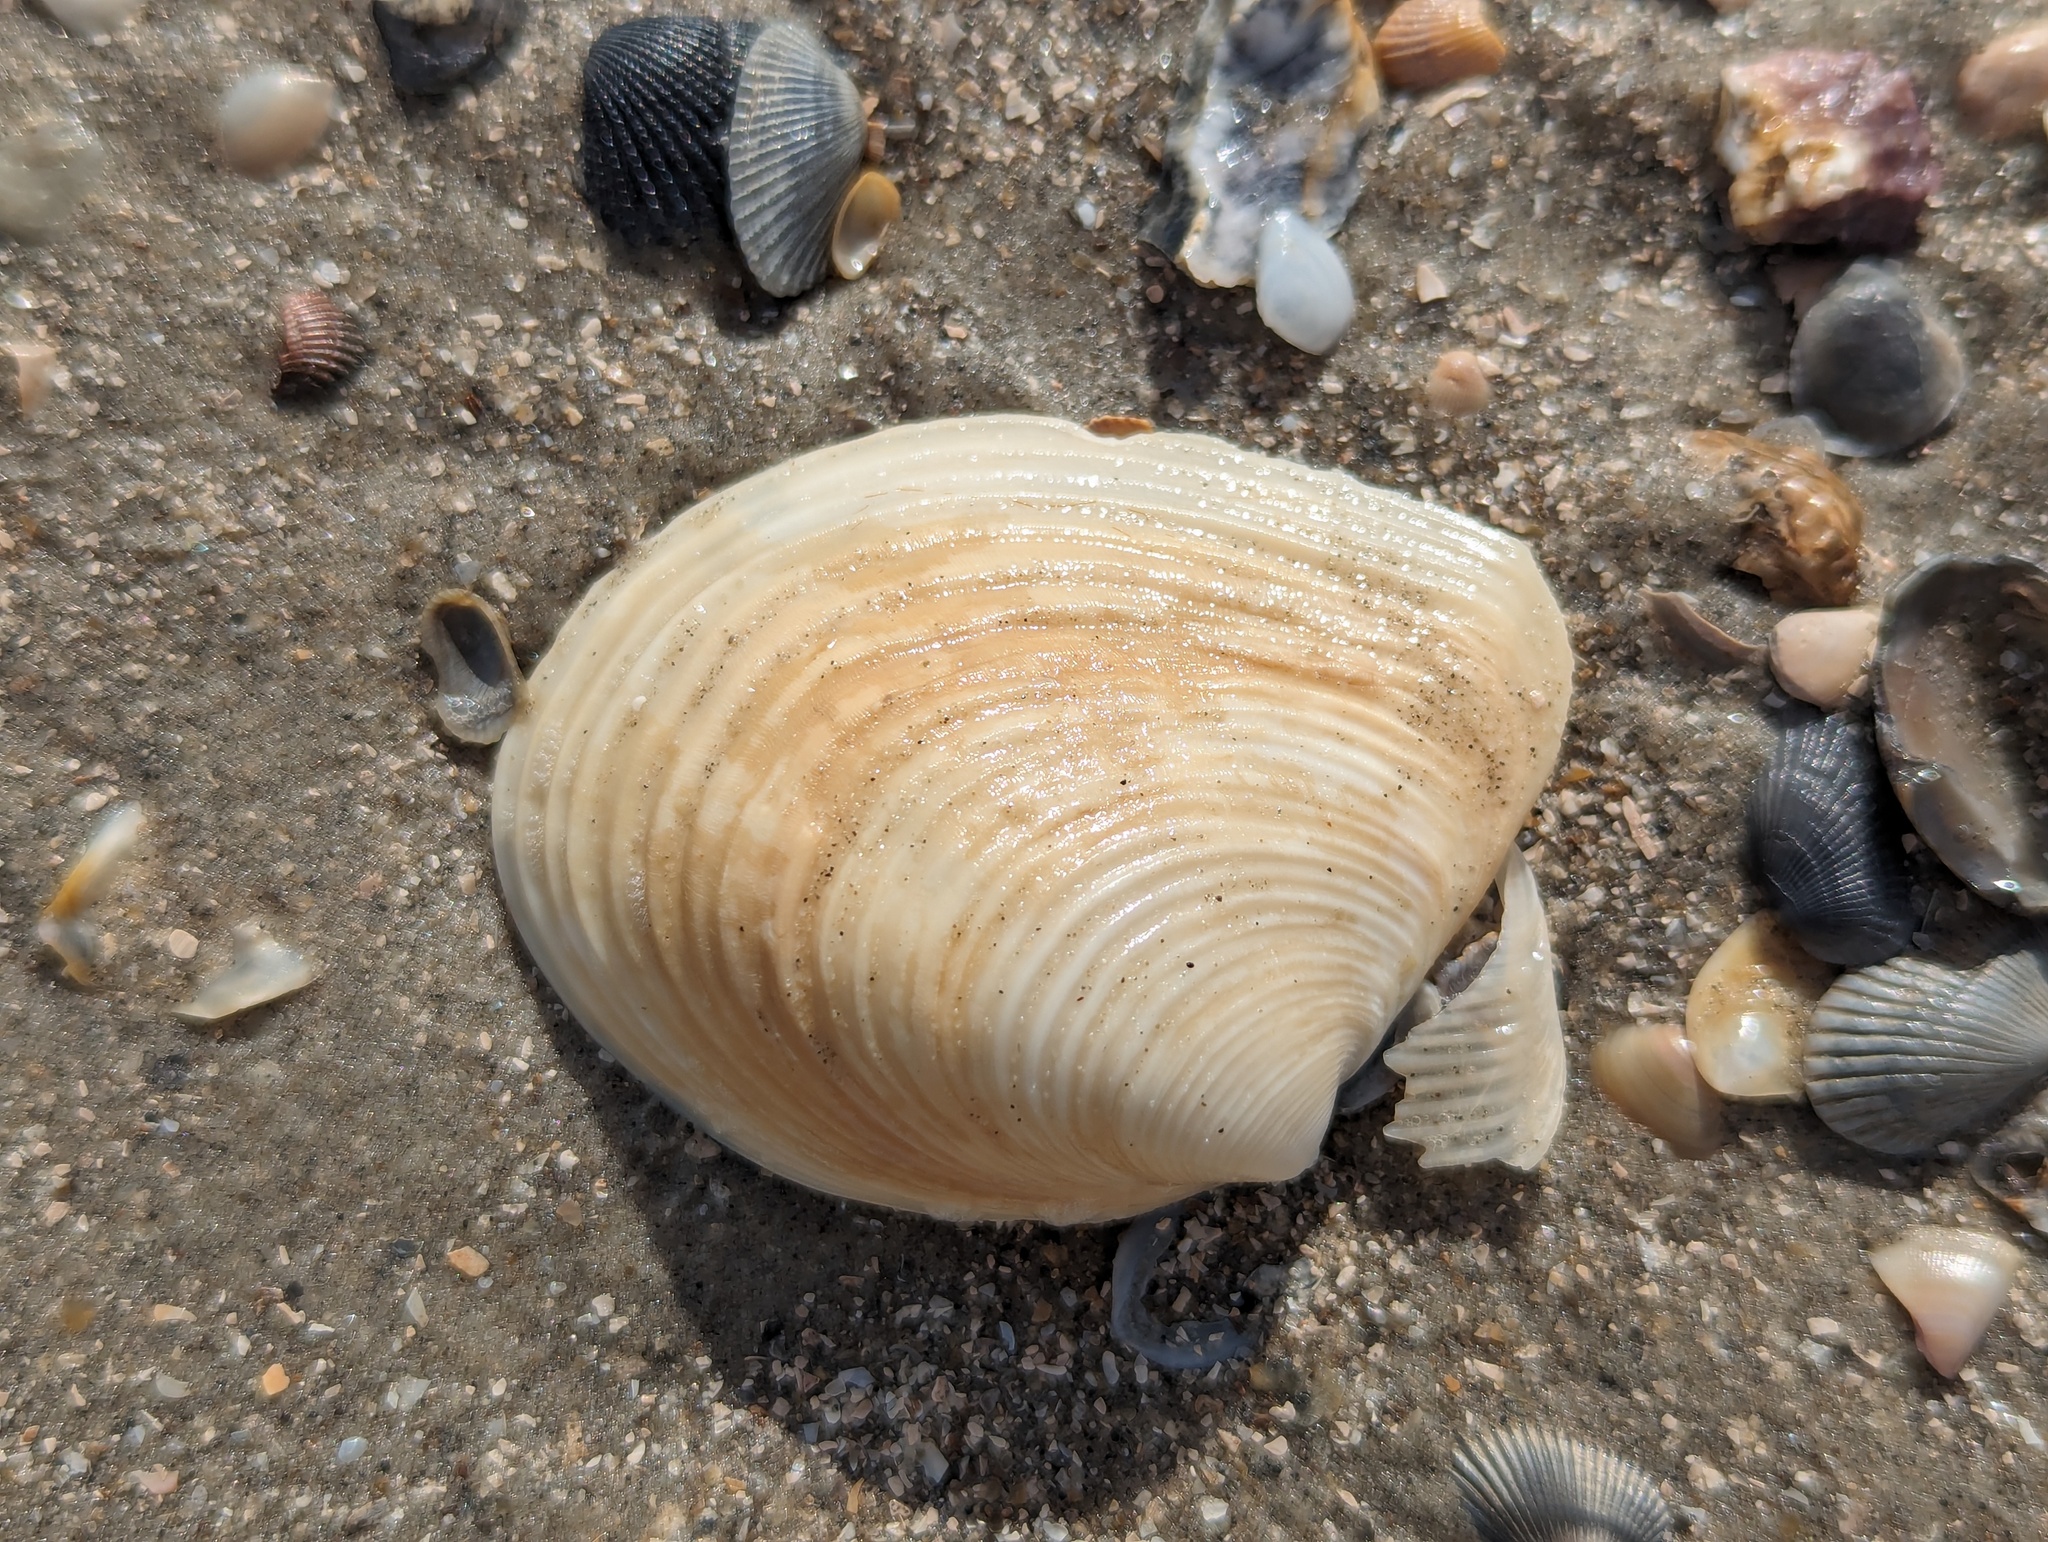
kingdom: Animalia
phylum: Mollusca
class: Bivalvia
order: Venerida
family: Anatinellidae
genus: Raeta
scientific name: Raeta plicatella
